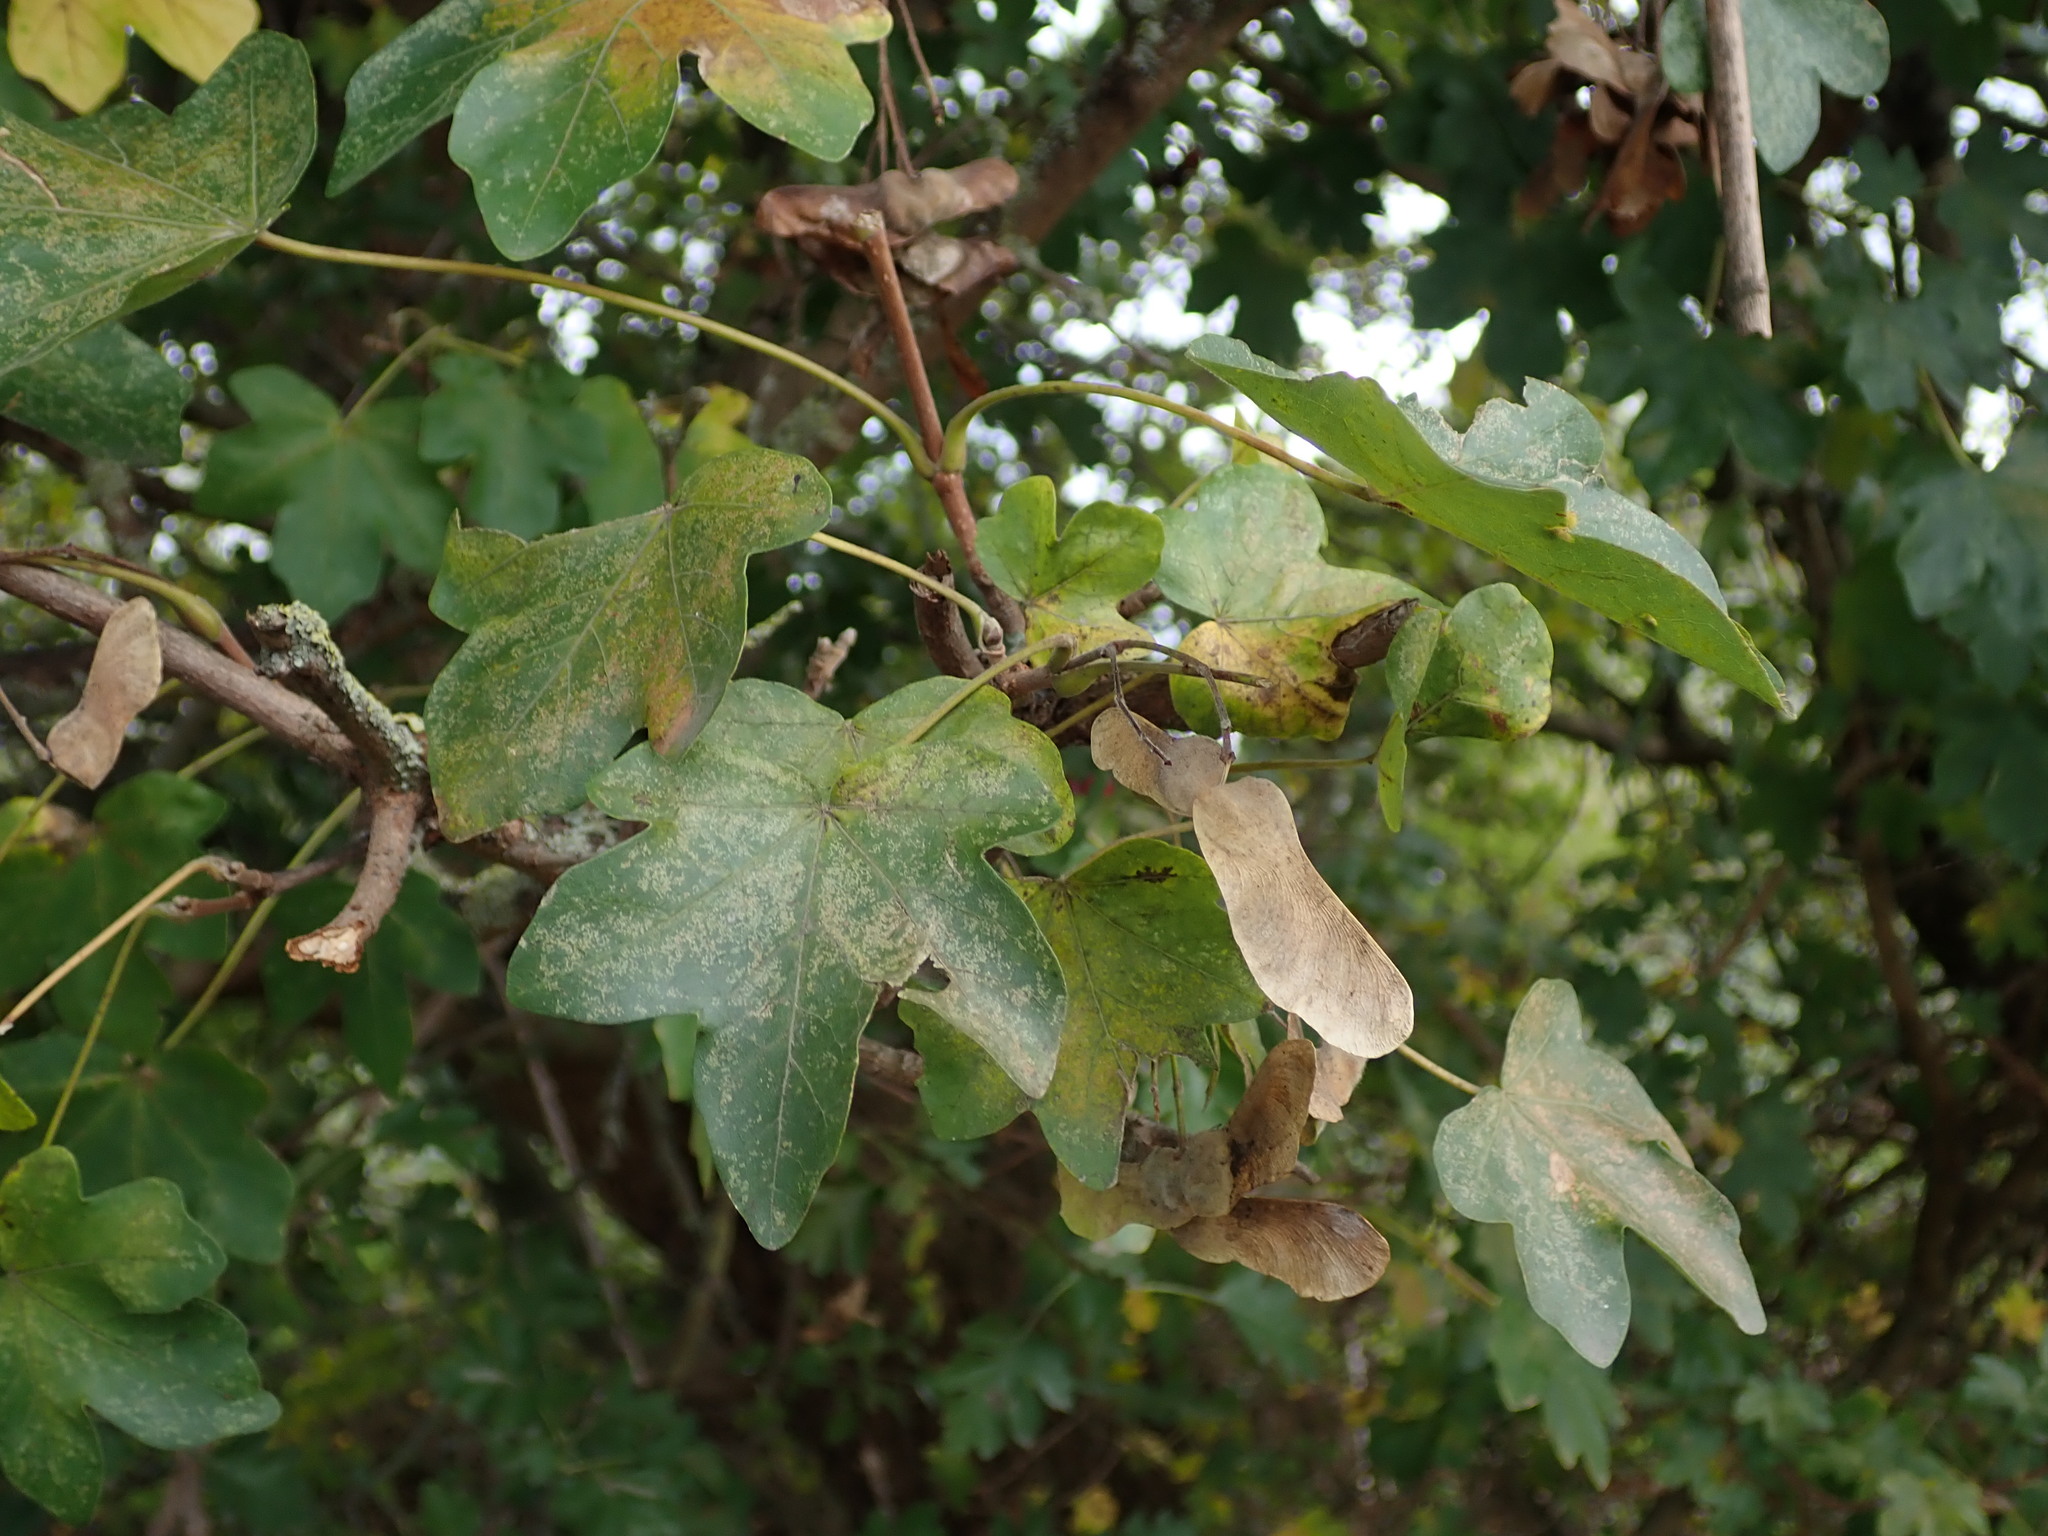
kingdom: Plantae
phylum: Tracheophyta
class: Magnoliopsida
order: Sapindales
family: Sapindaceae
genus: Acer
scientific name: Acer campestre
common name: Field maple
